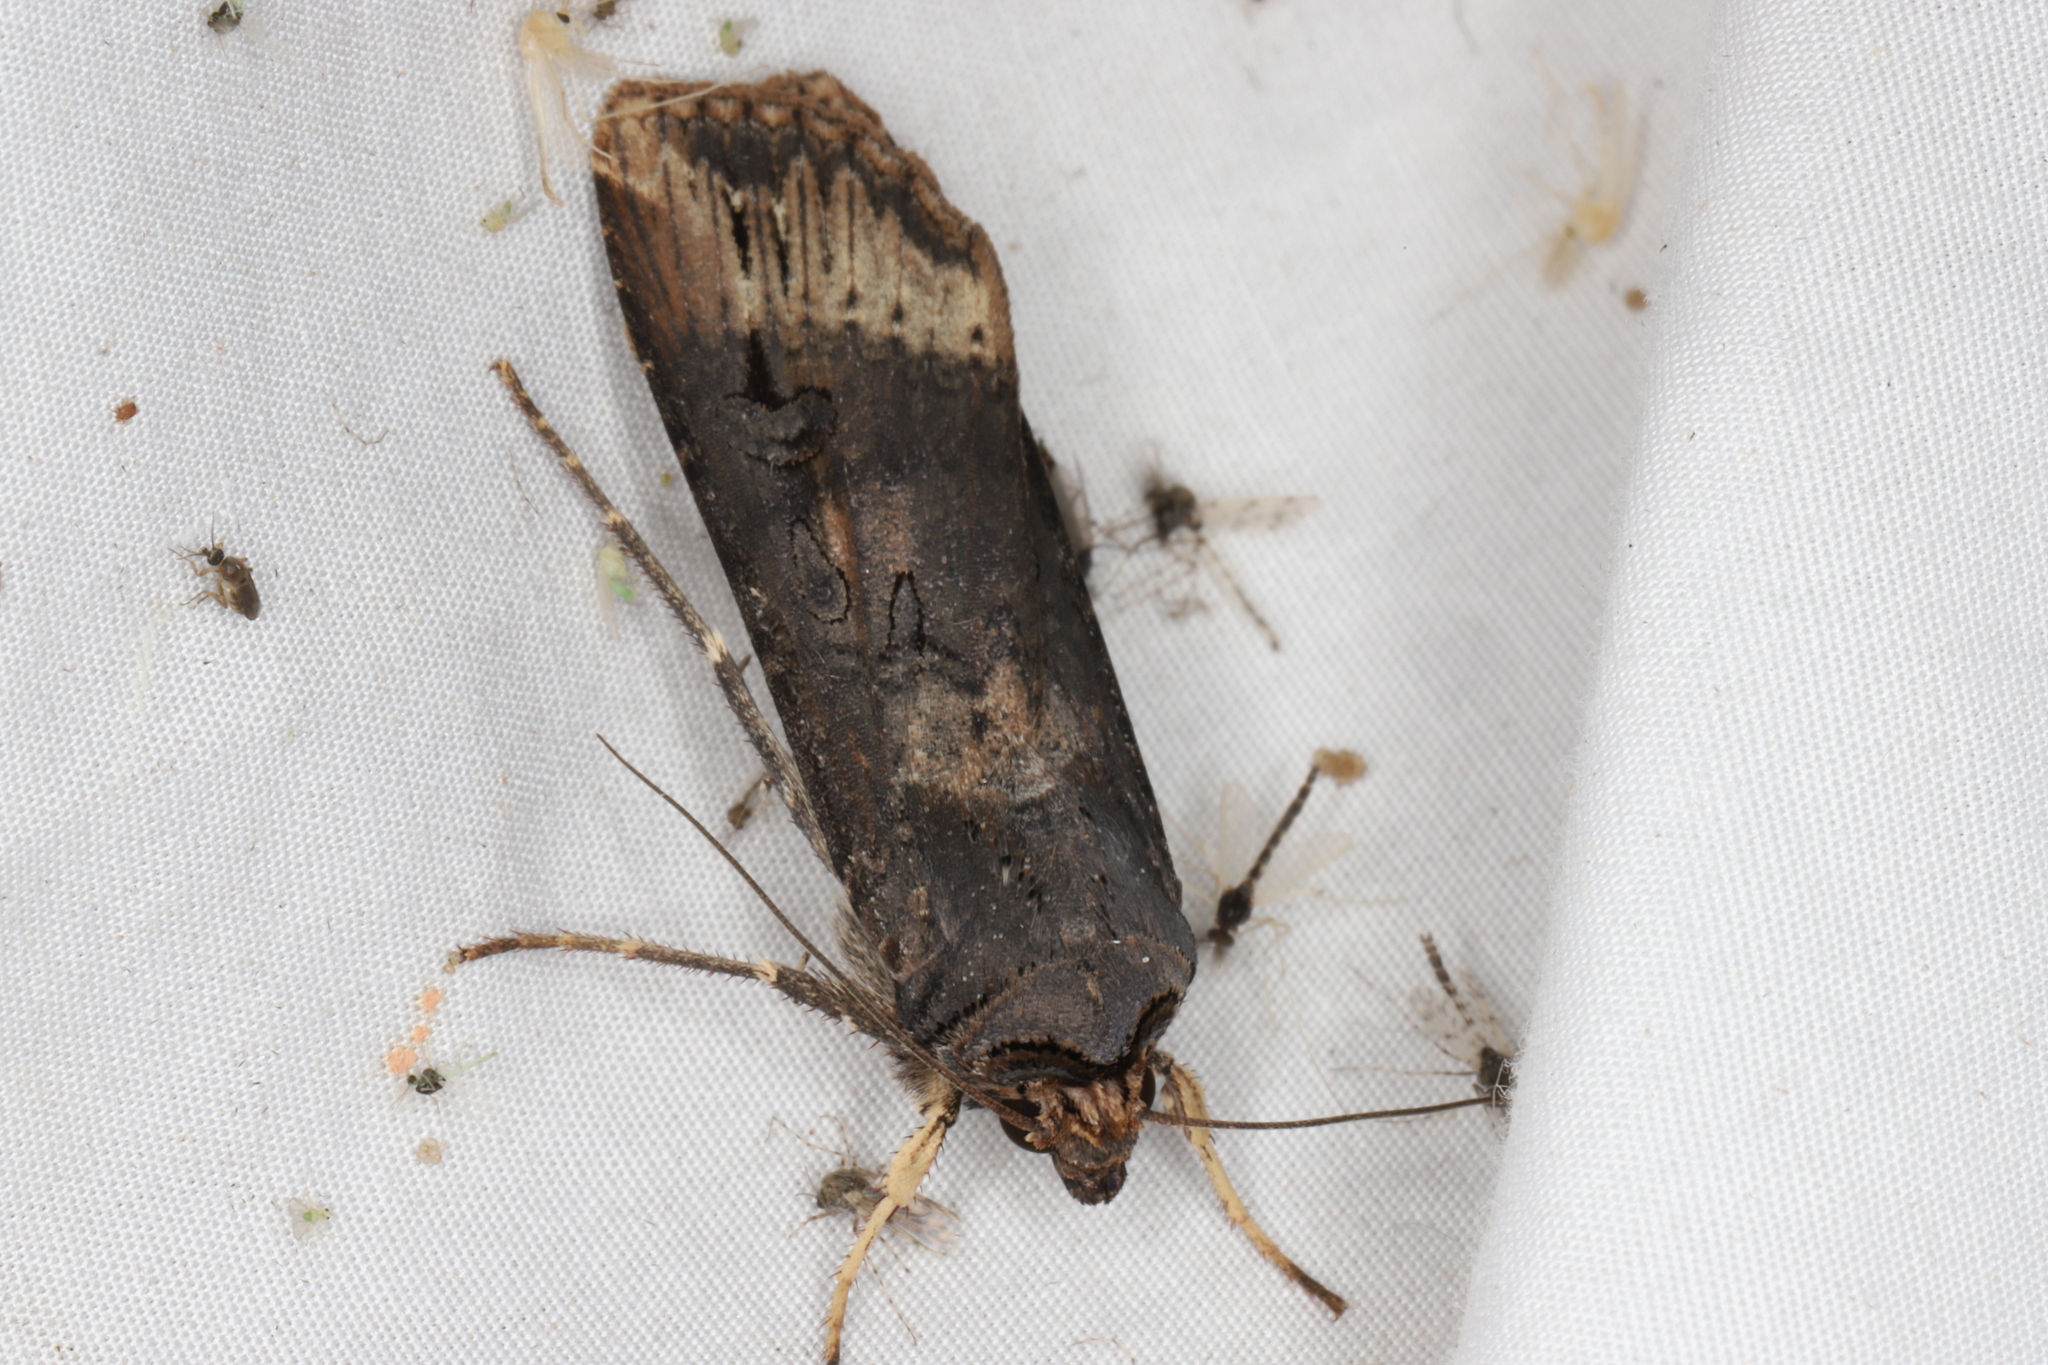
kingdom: Animalia
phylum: Arthropoda
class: Insecta
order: Lepidoptera
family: Noctuidae
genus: Agrotis
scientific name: Agrotis ipsilon
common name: Dark sword-grass
